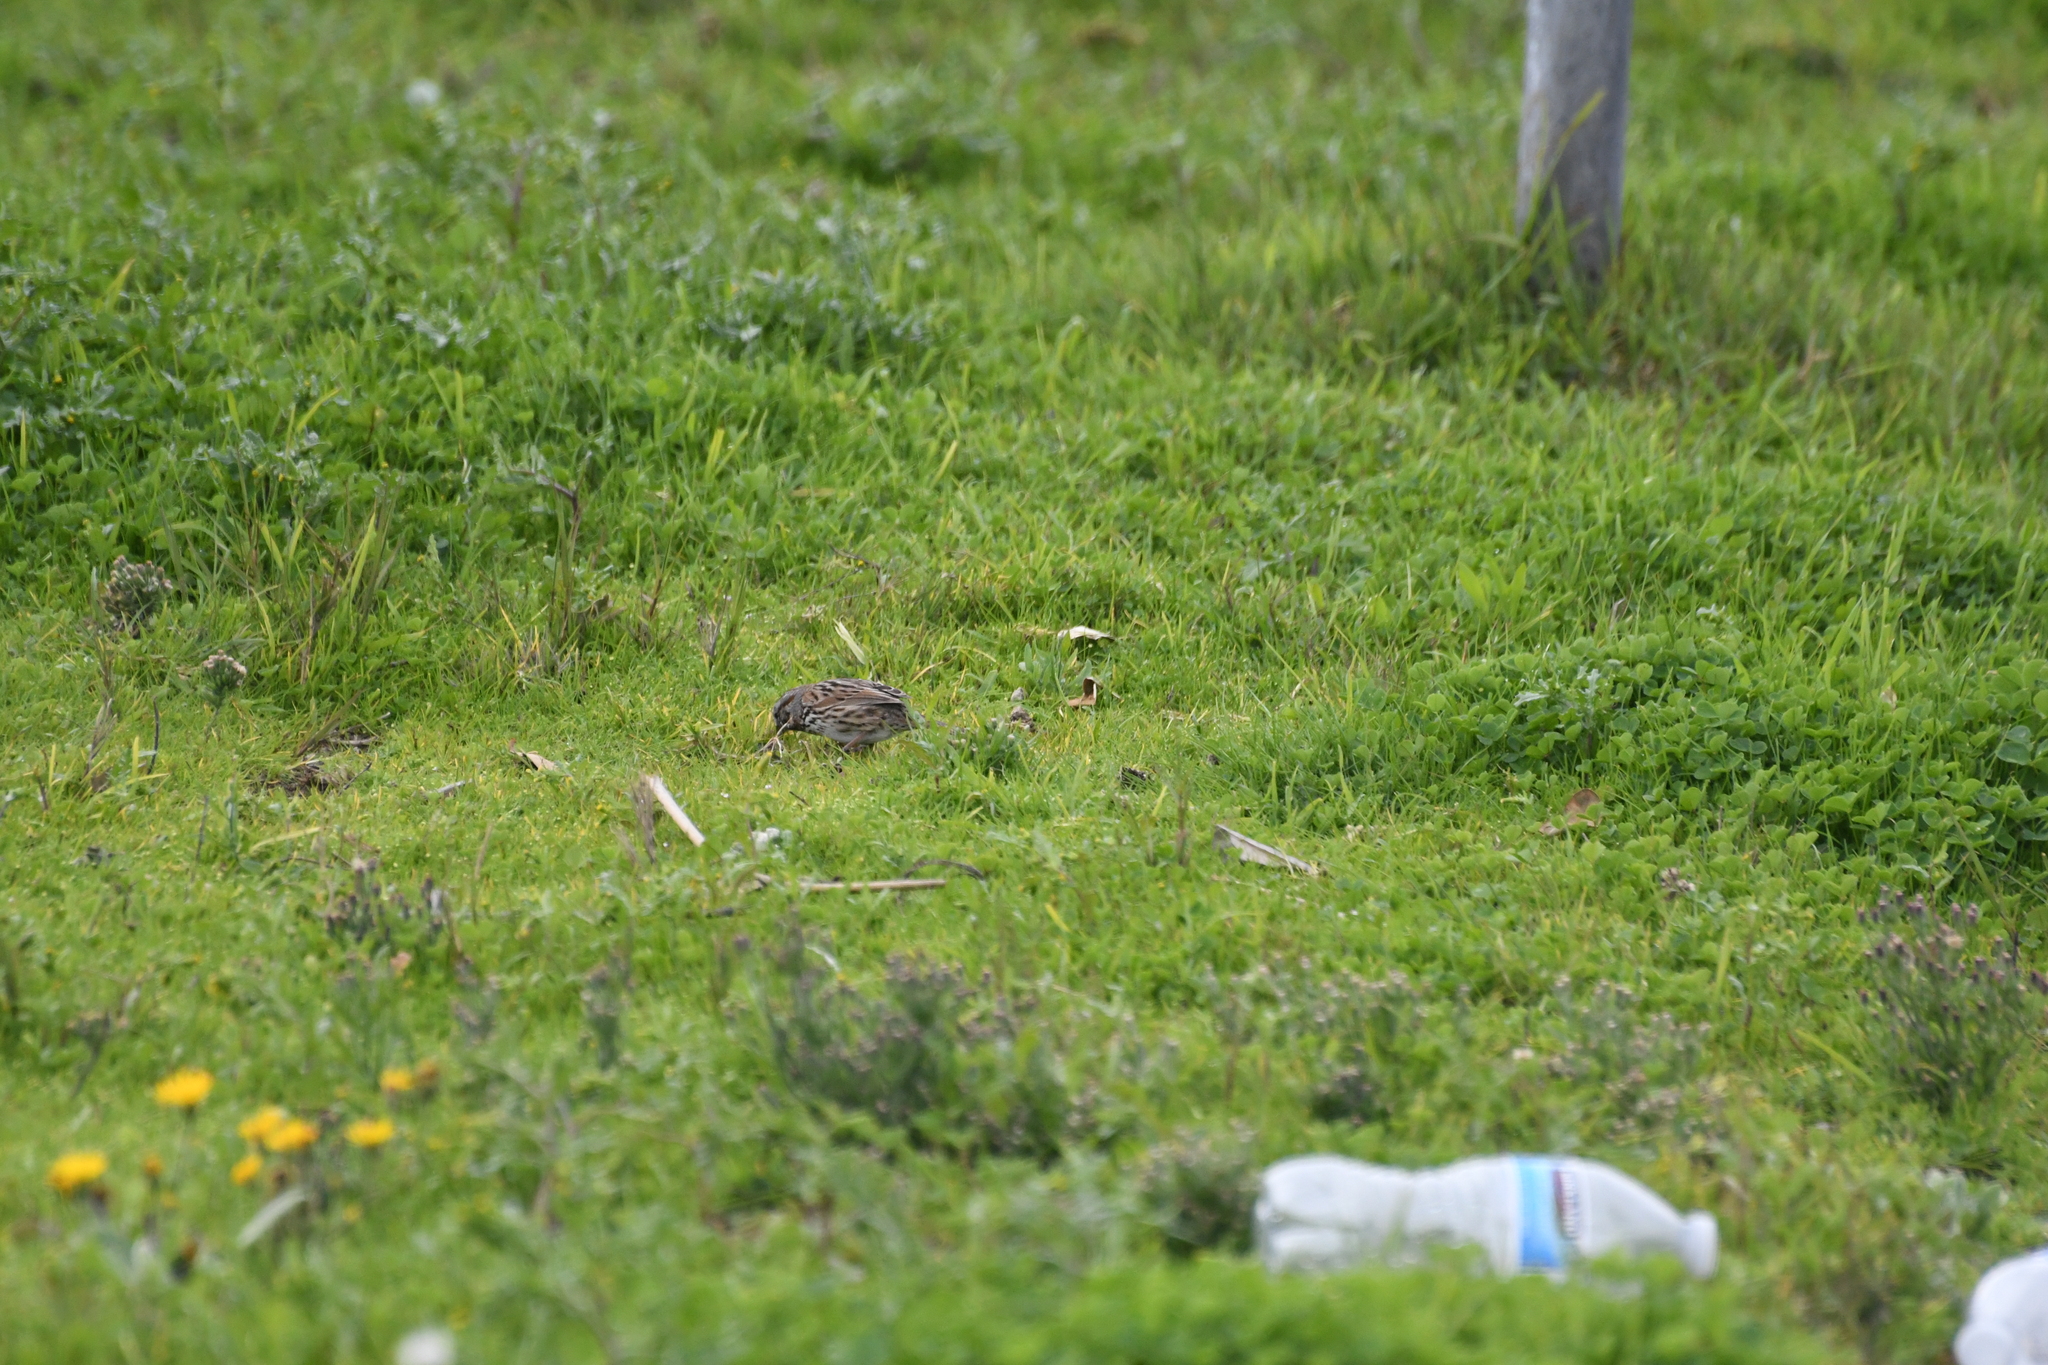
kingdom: Animalia
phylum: Chordata
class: Aves
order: Passeriformes
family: Passerellidae
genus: Melospiza
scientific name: Melospiza melodia
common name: Song sparrow
